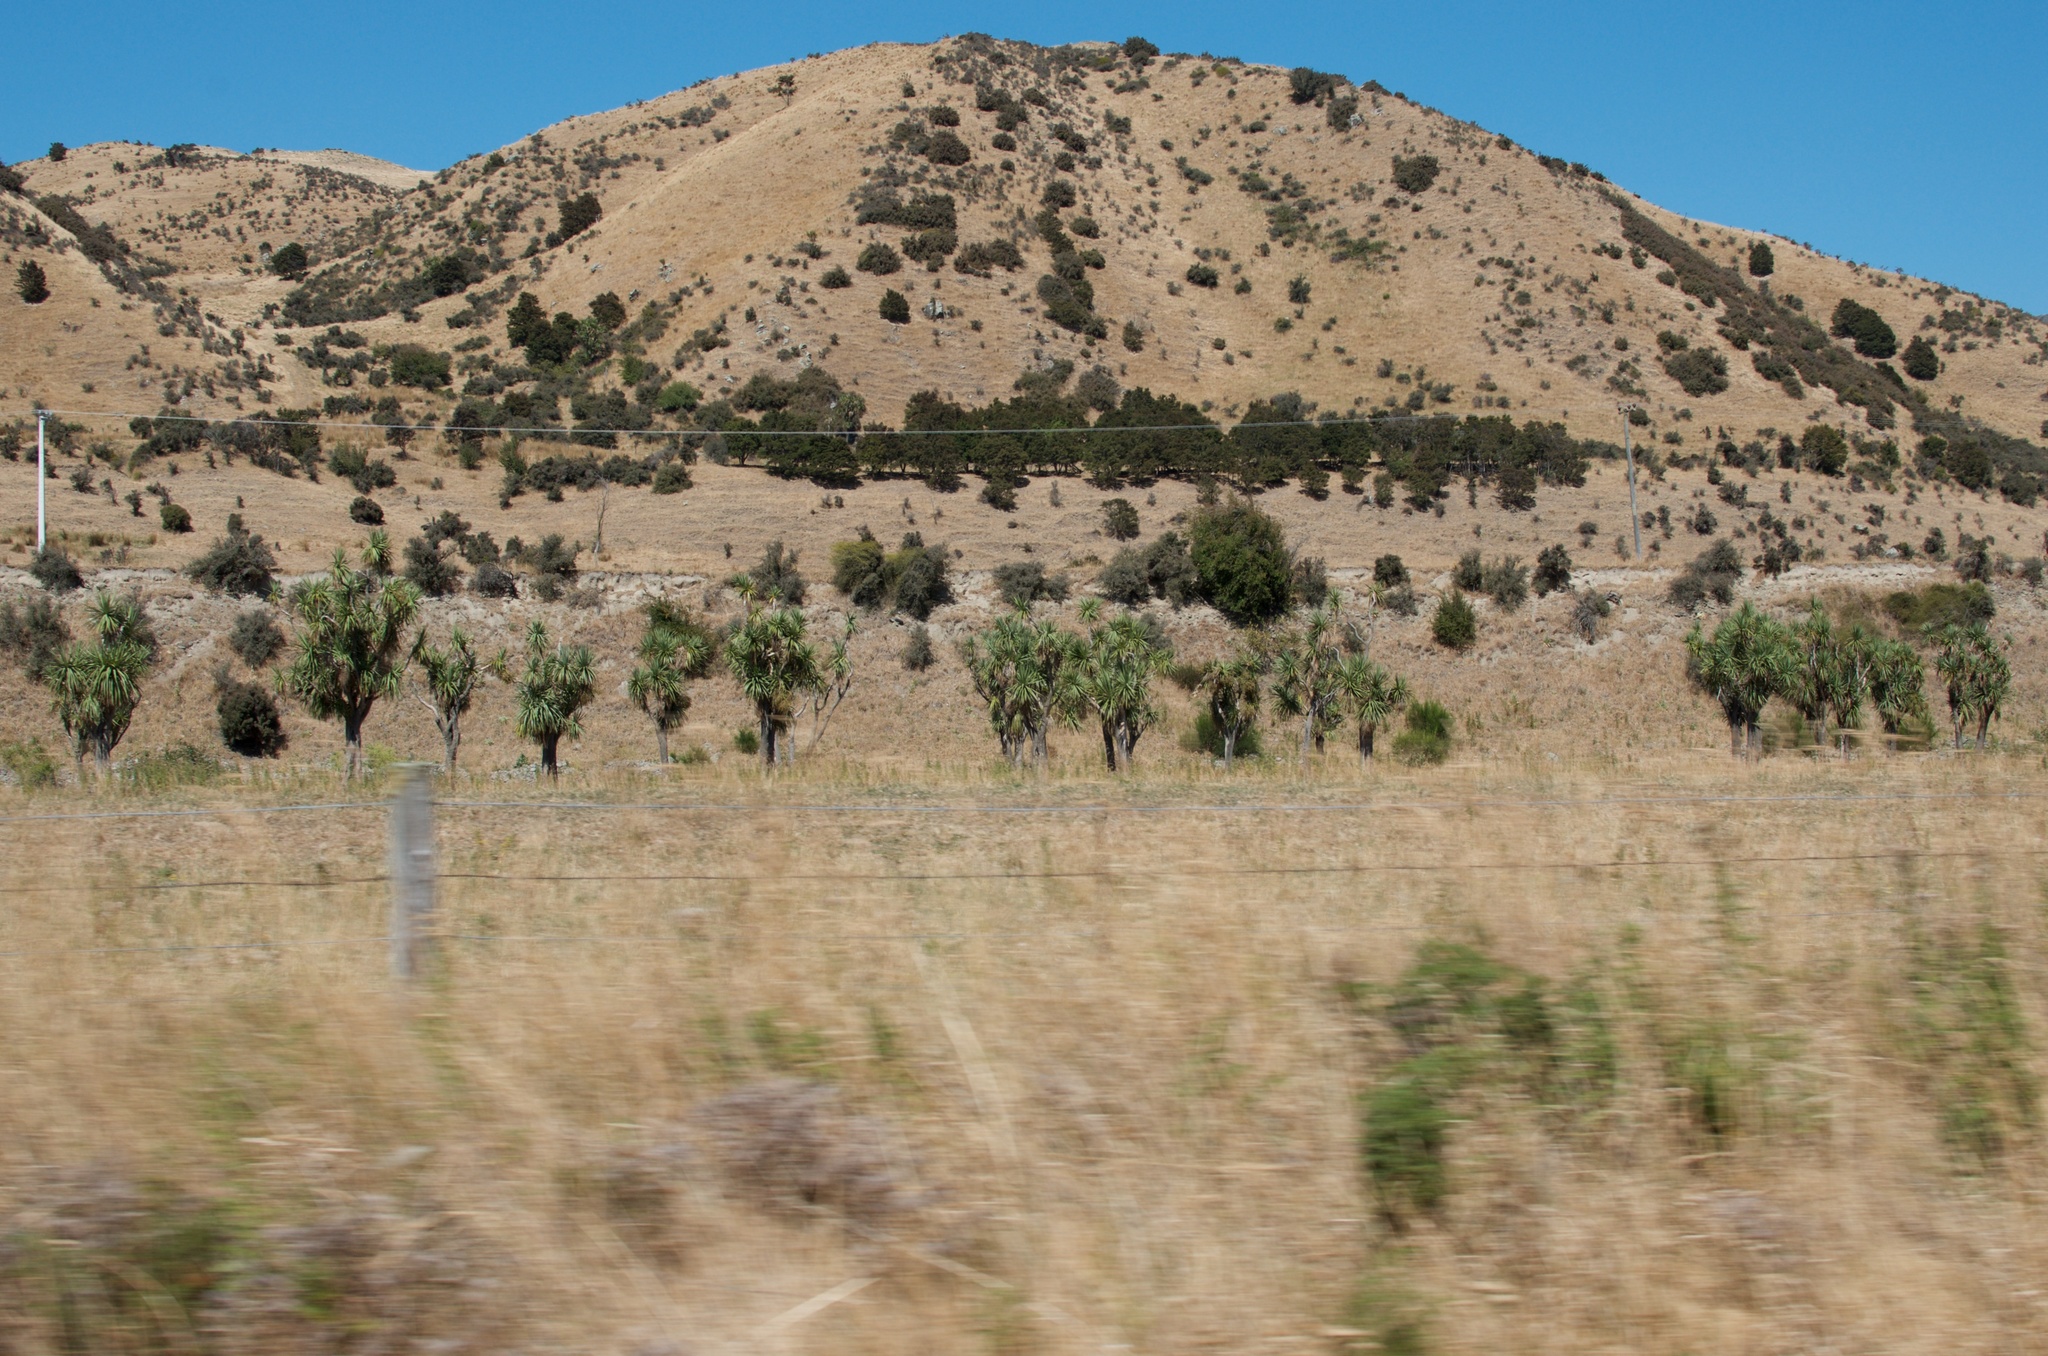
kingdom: Plantae
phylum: Tracheophyta
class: Liliopsida
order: Asparagales
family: Asparagaceae
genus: Cordyline
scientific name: Cordyline australis
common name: Cabbage-palm
